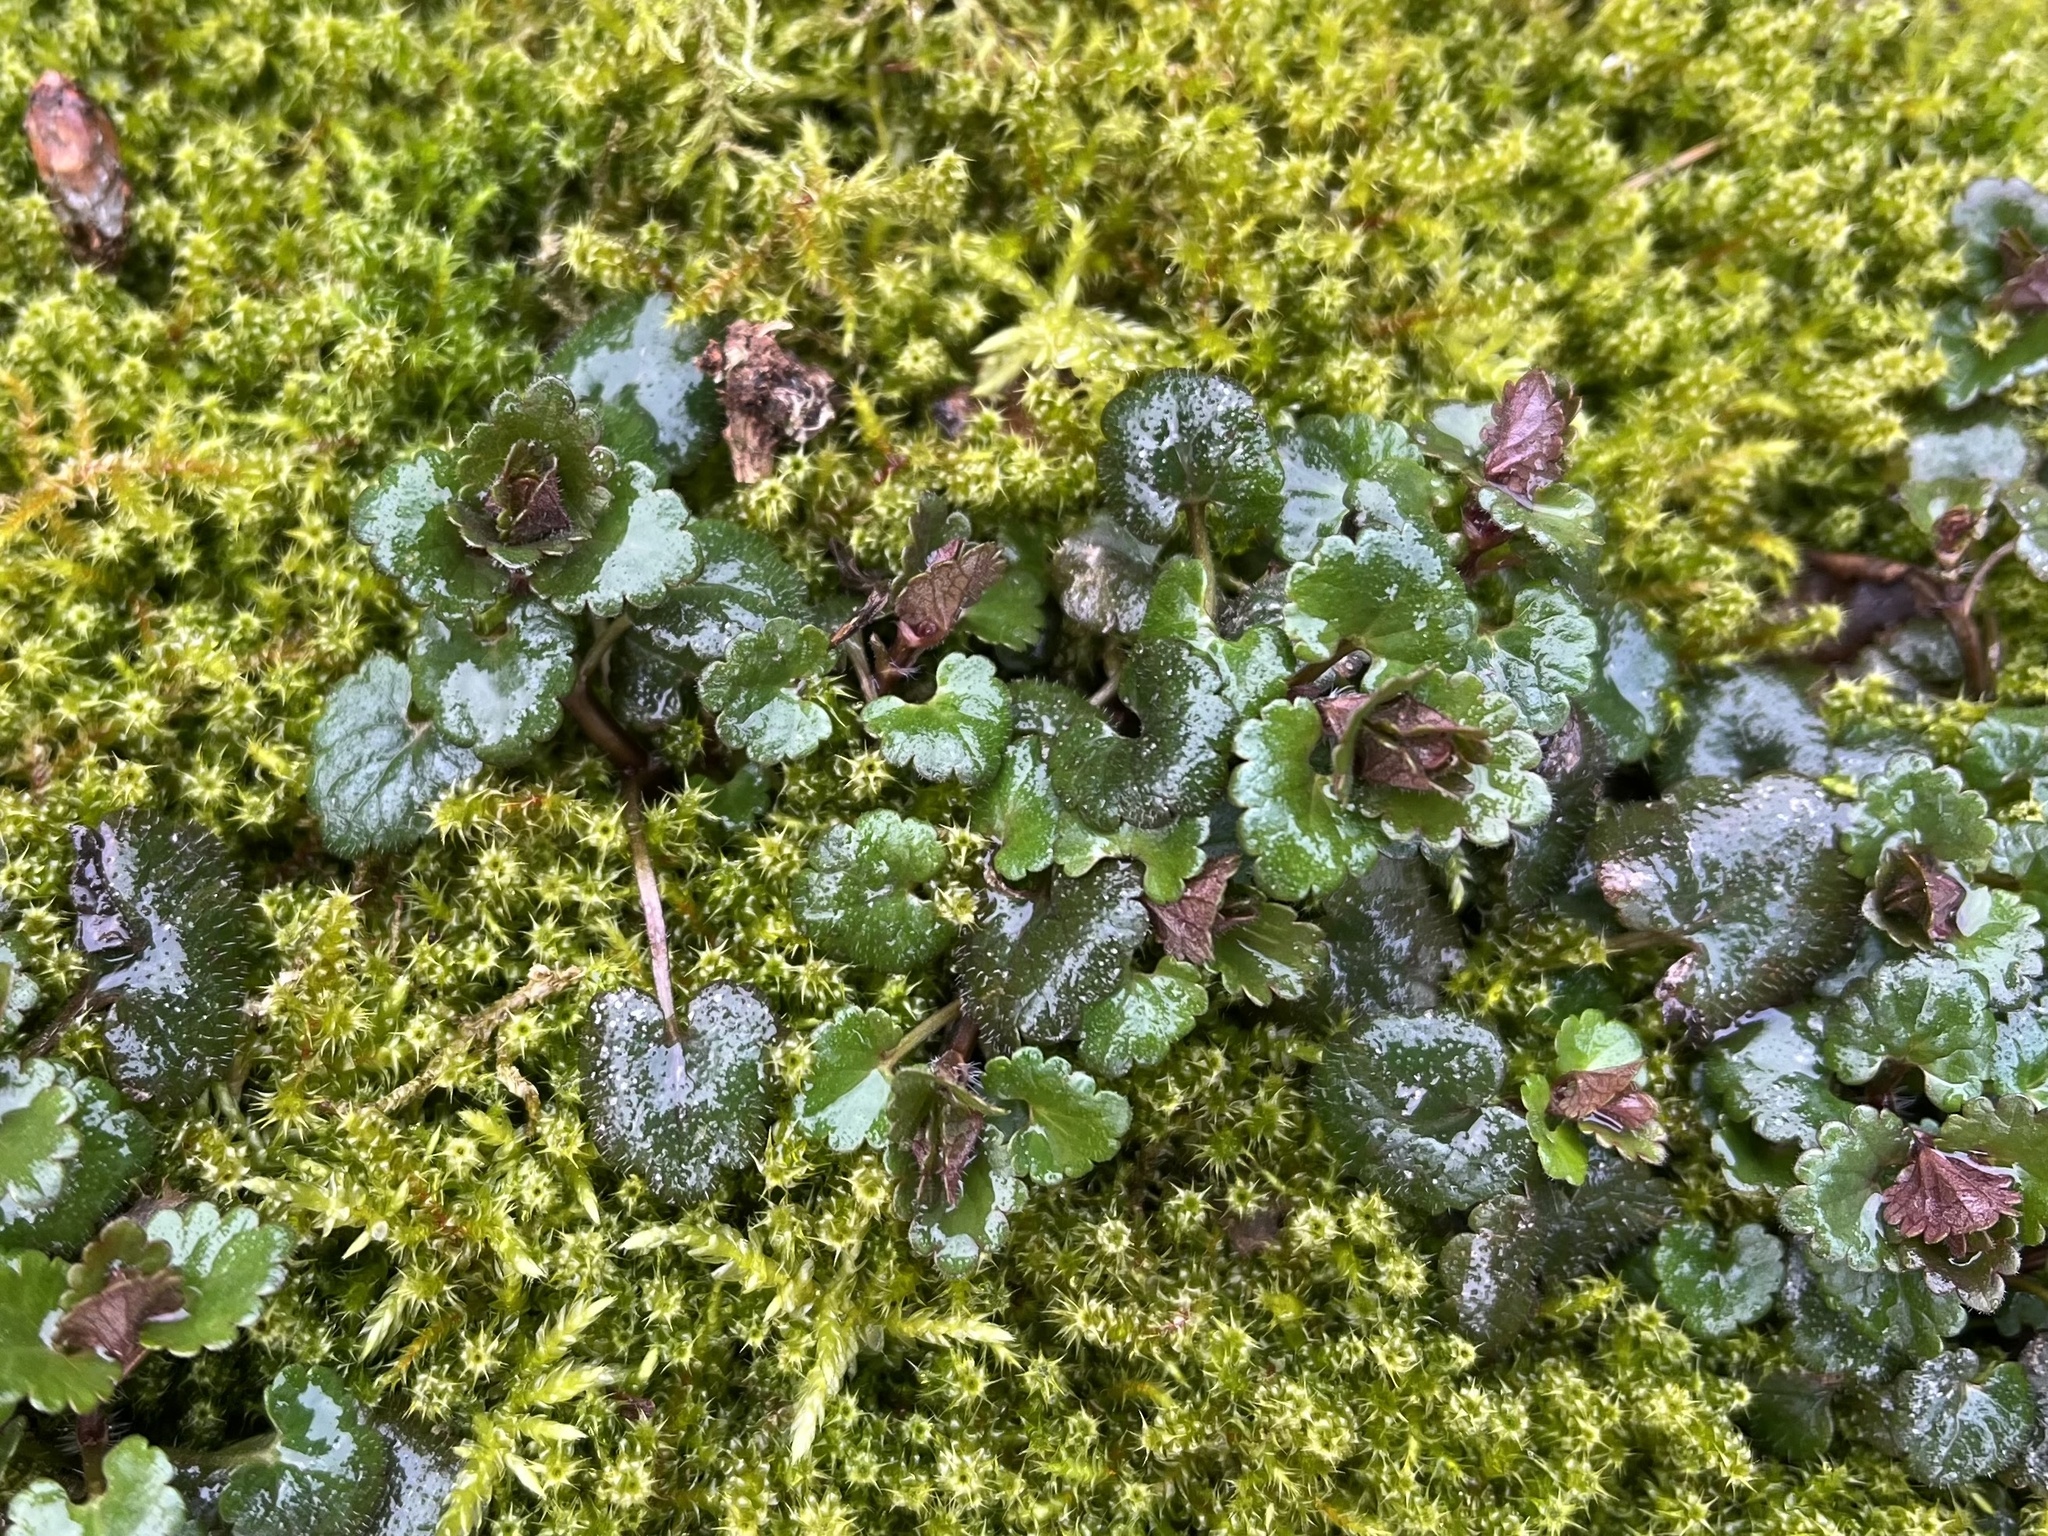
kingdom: Plantae
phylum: Tracheophyta
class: Magnoliopsida
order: Lamiales
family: Lamiaceae
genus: Glechoma
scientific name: Glechoma hederacea
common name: Ground ivy
